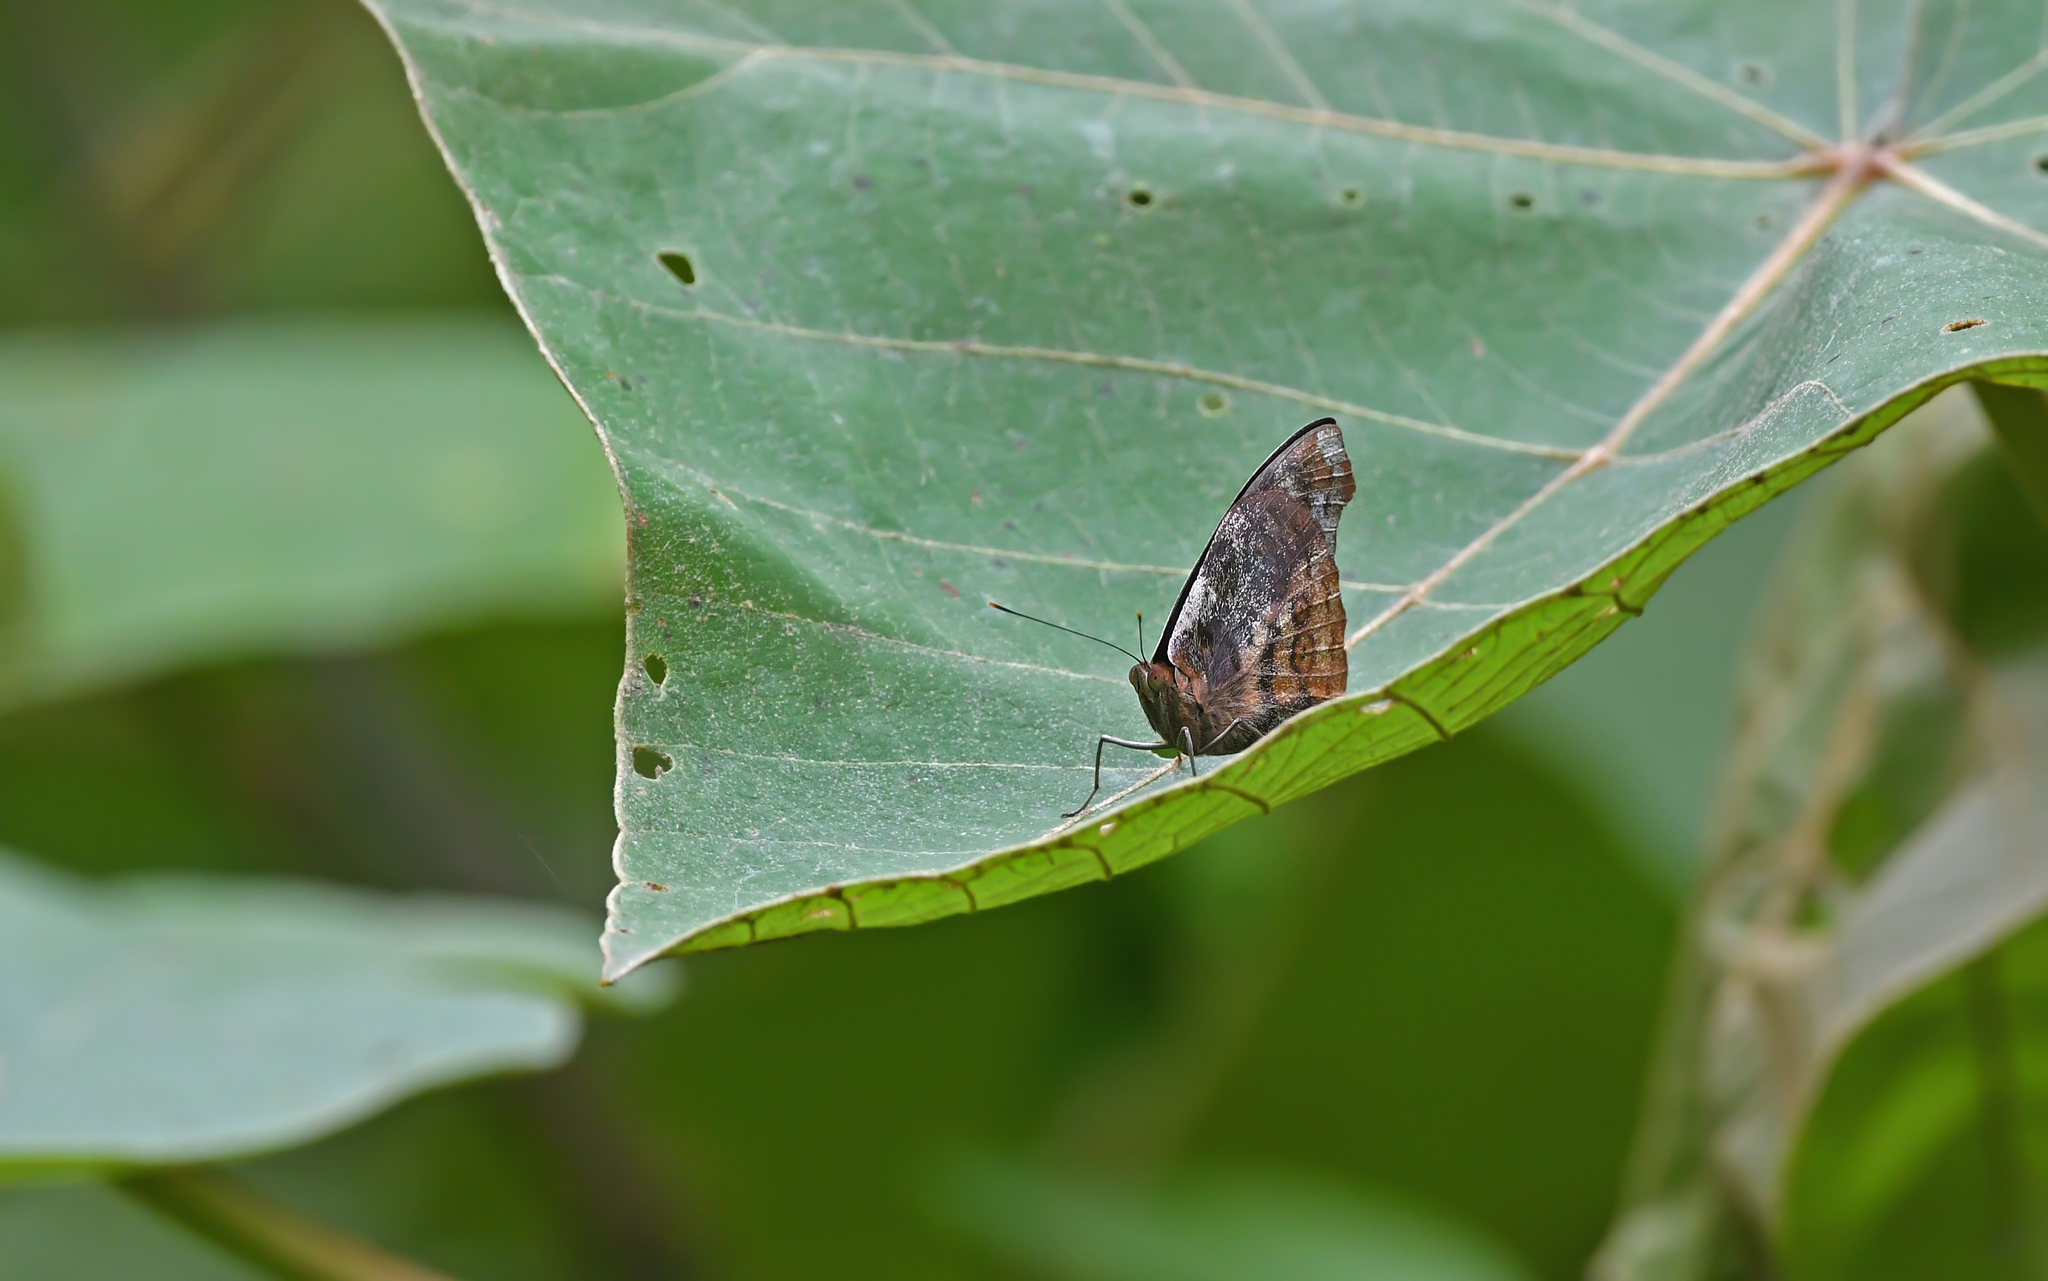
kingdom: Animalia
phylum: Arthropoda
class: Insecta
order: Lepidoptera
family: Nymphalidae
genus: Eunica
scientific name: Eunica sydonia
